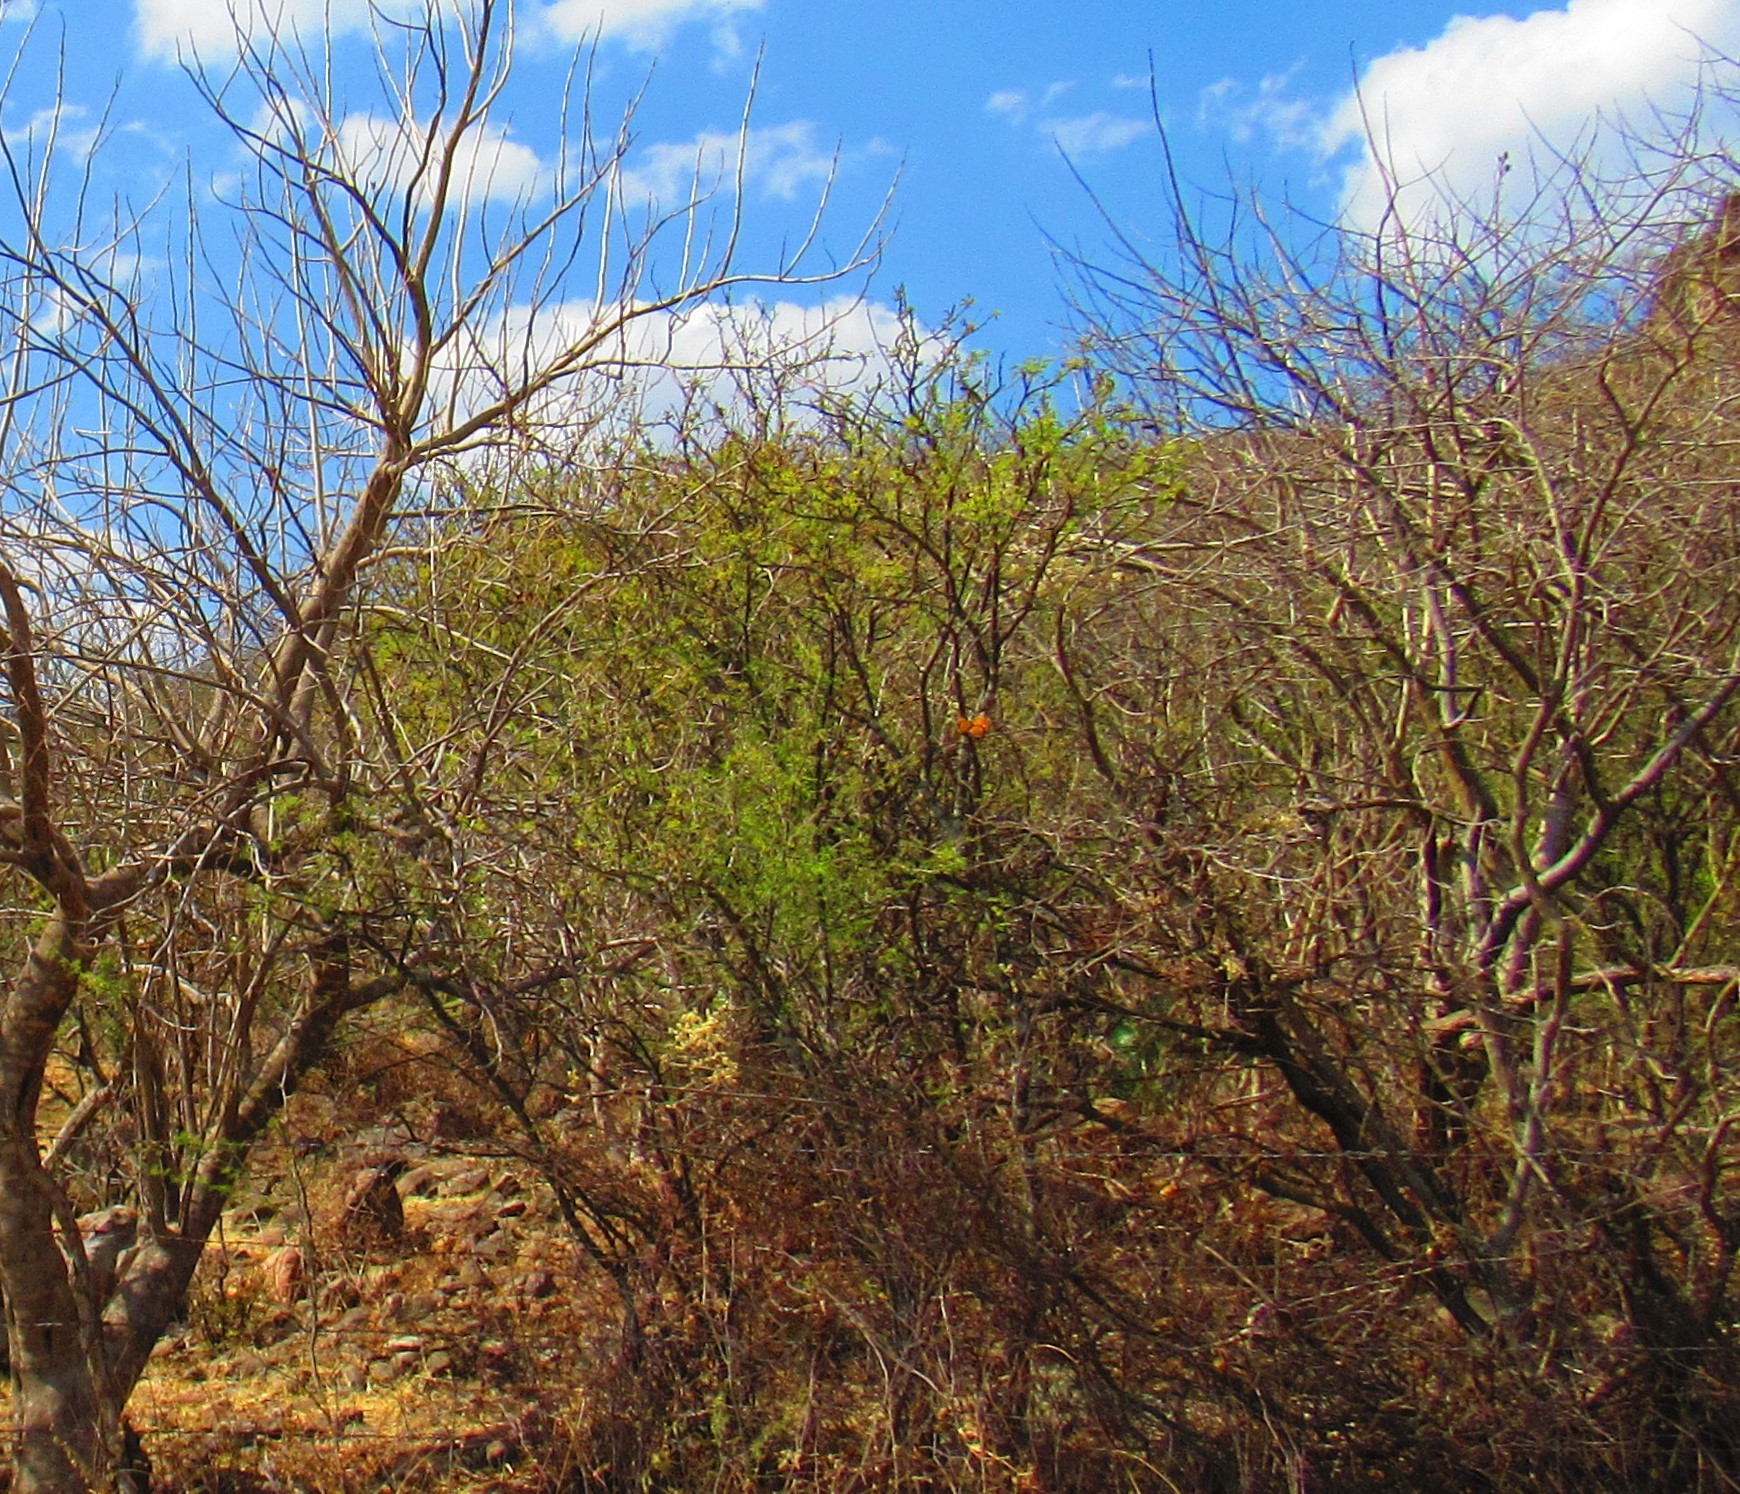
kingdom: Animalia
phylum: Arthropoda
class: Insecta
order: Lepidoptera
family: Nymphalidae
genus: Danaus
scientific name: Danaus plexippus
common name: Monarch
